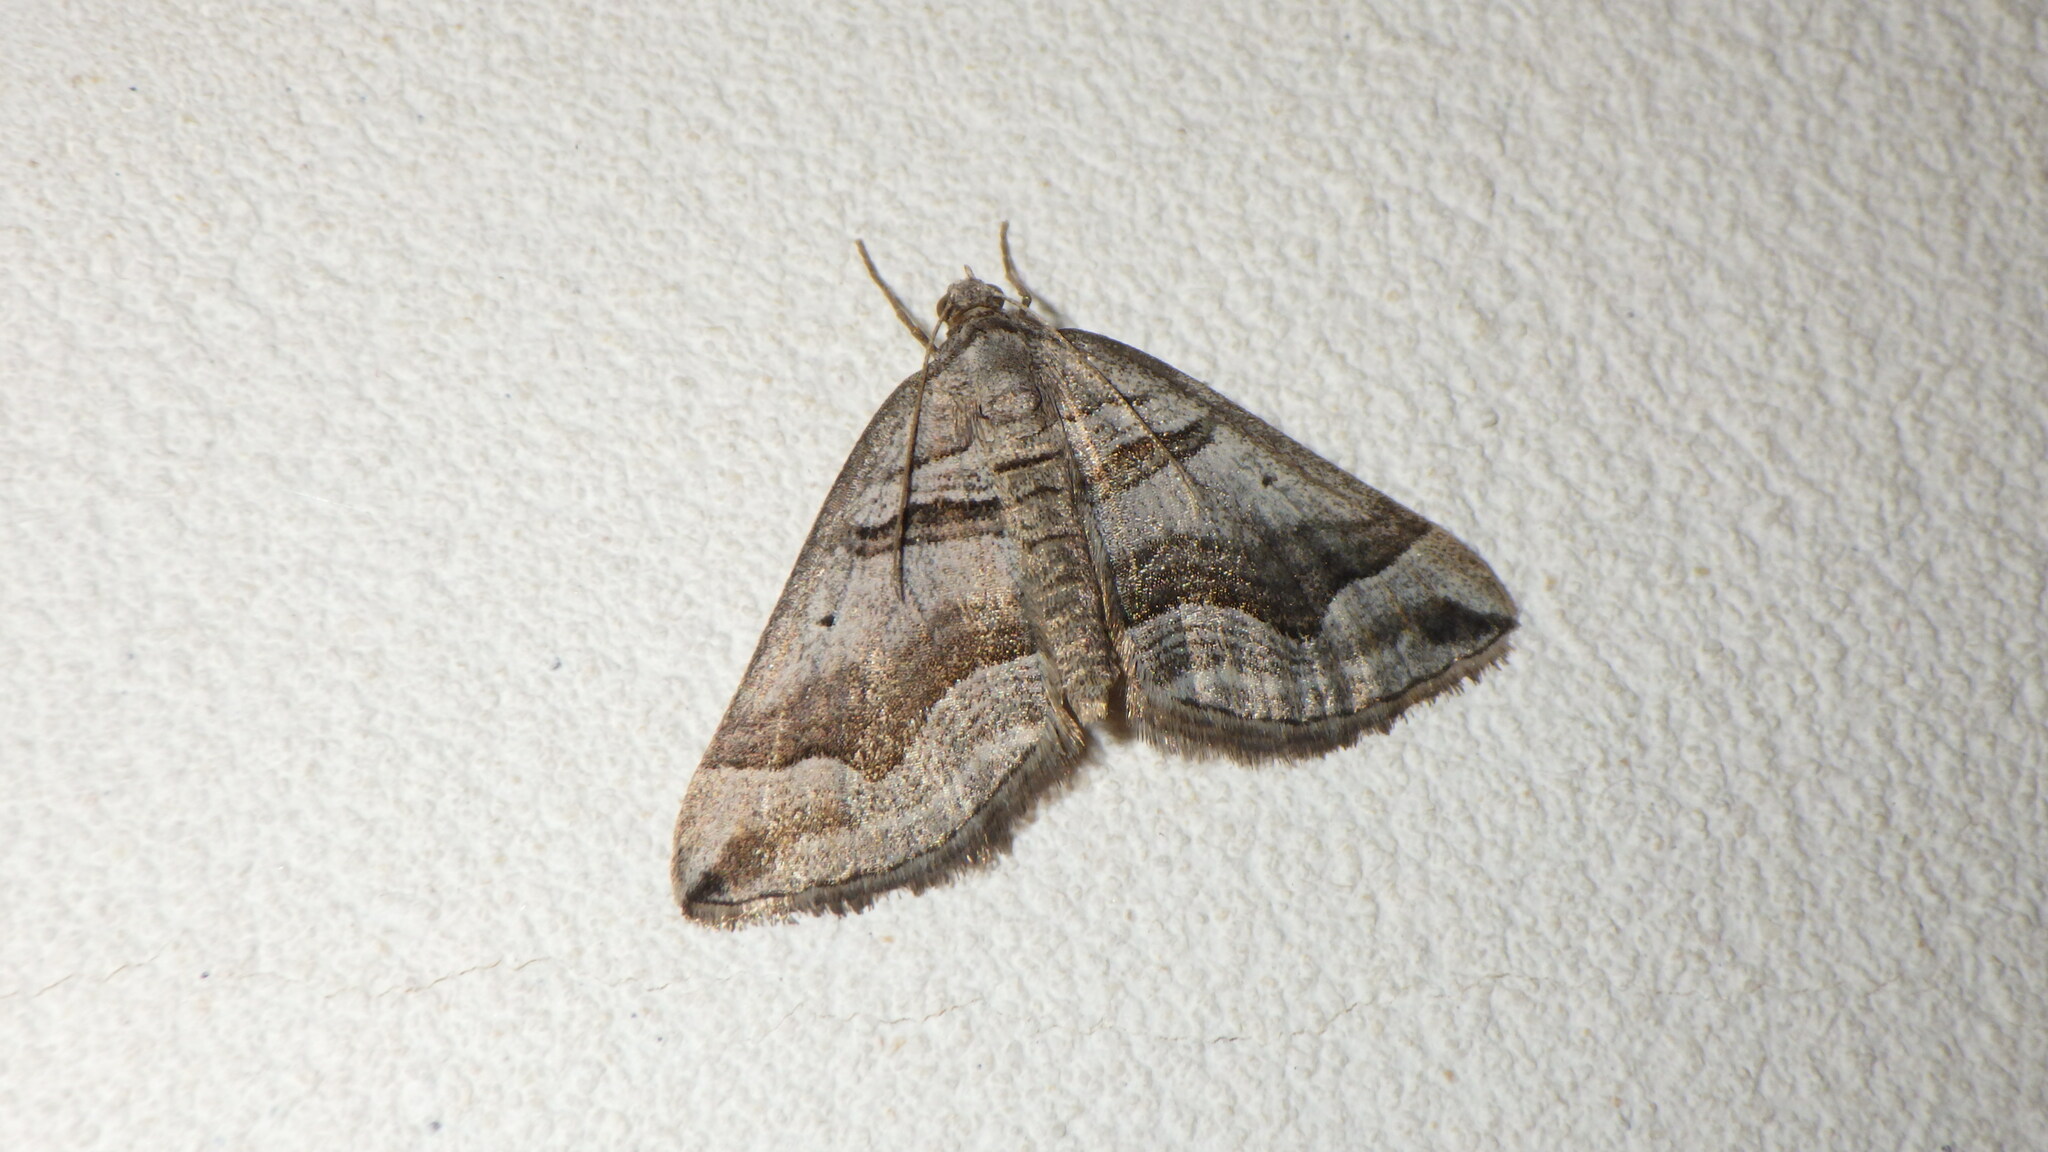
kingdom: Animalia
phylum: Arthropoda
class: Insecta
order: Lepidoptera
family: Geometridae
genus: Scotopteryx
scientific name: Scotopteryx peribolata
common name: Spanish carpet
